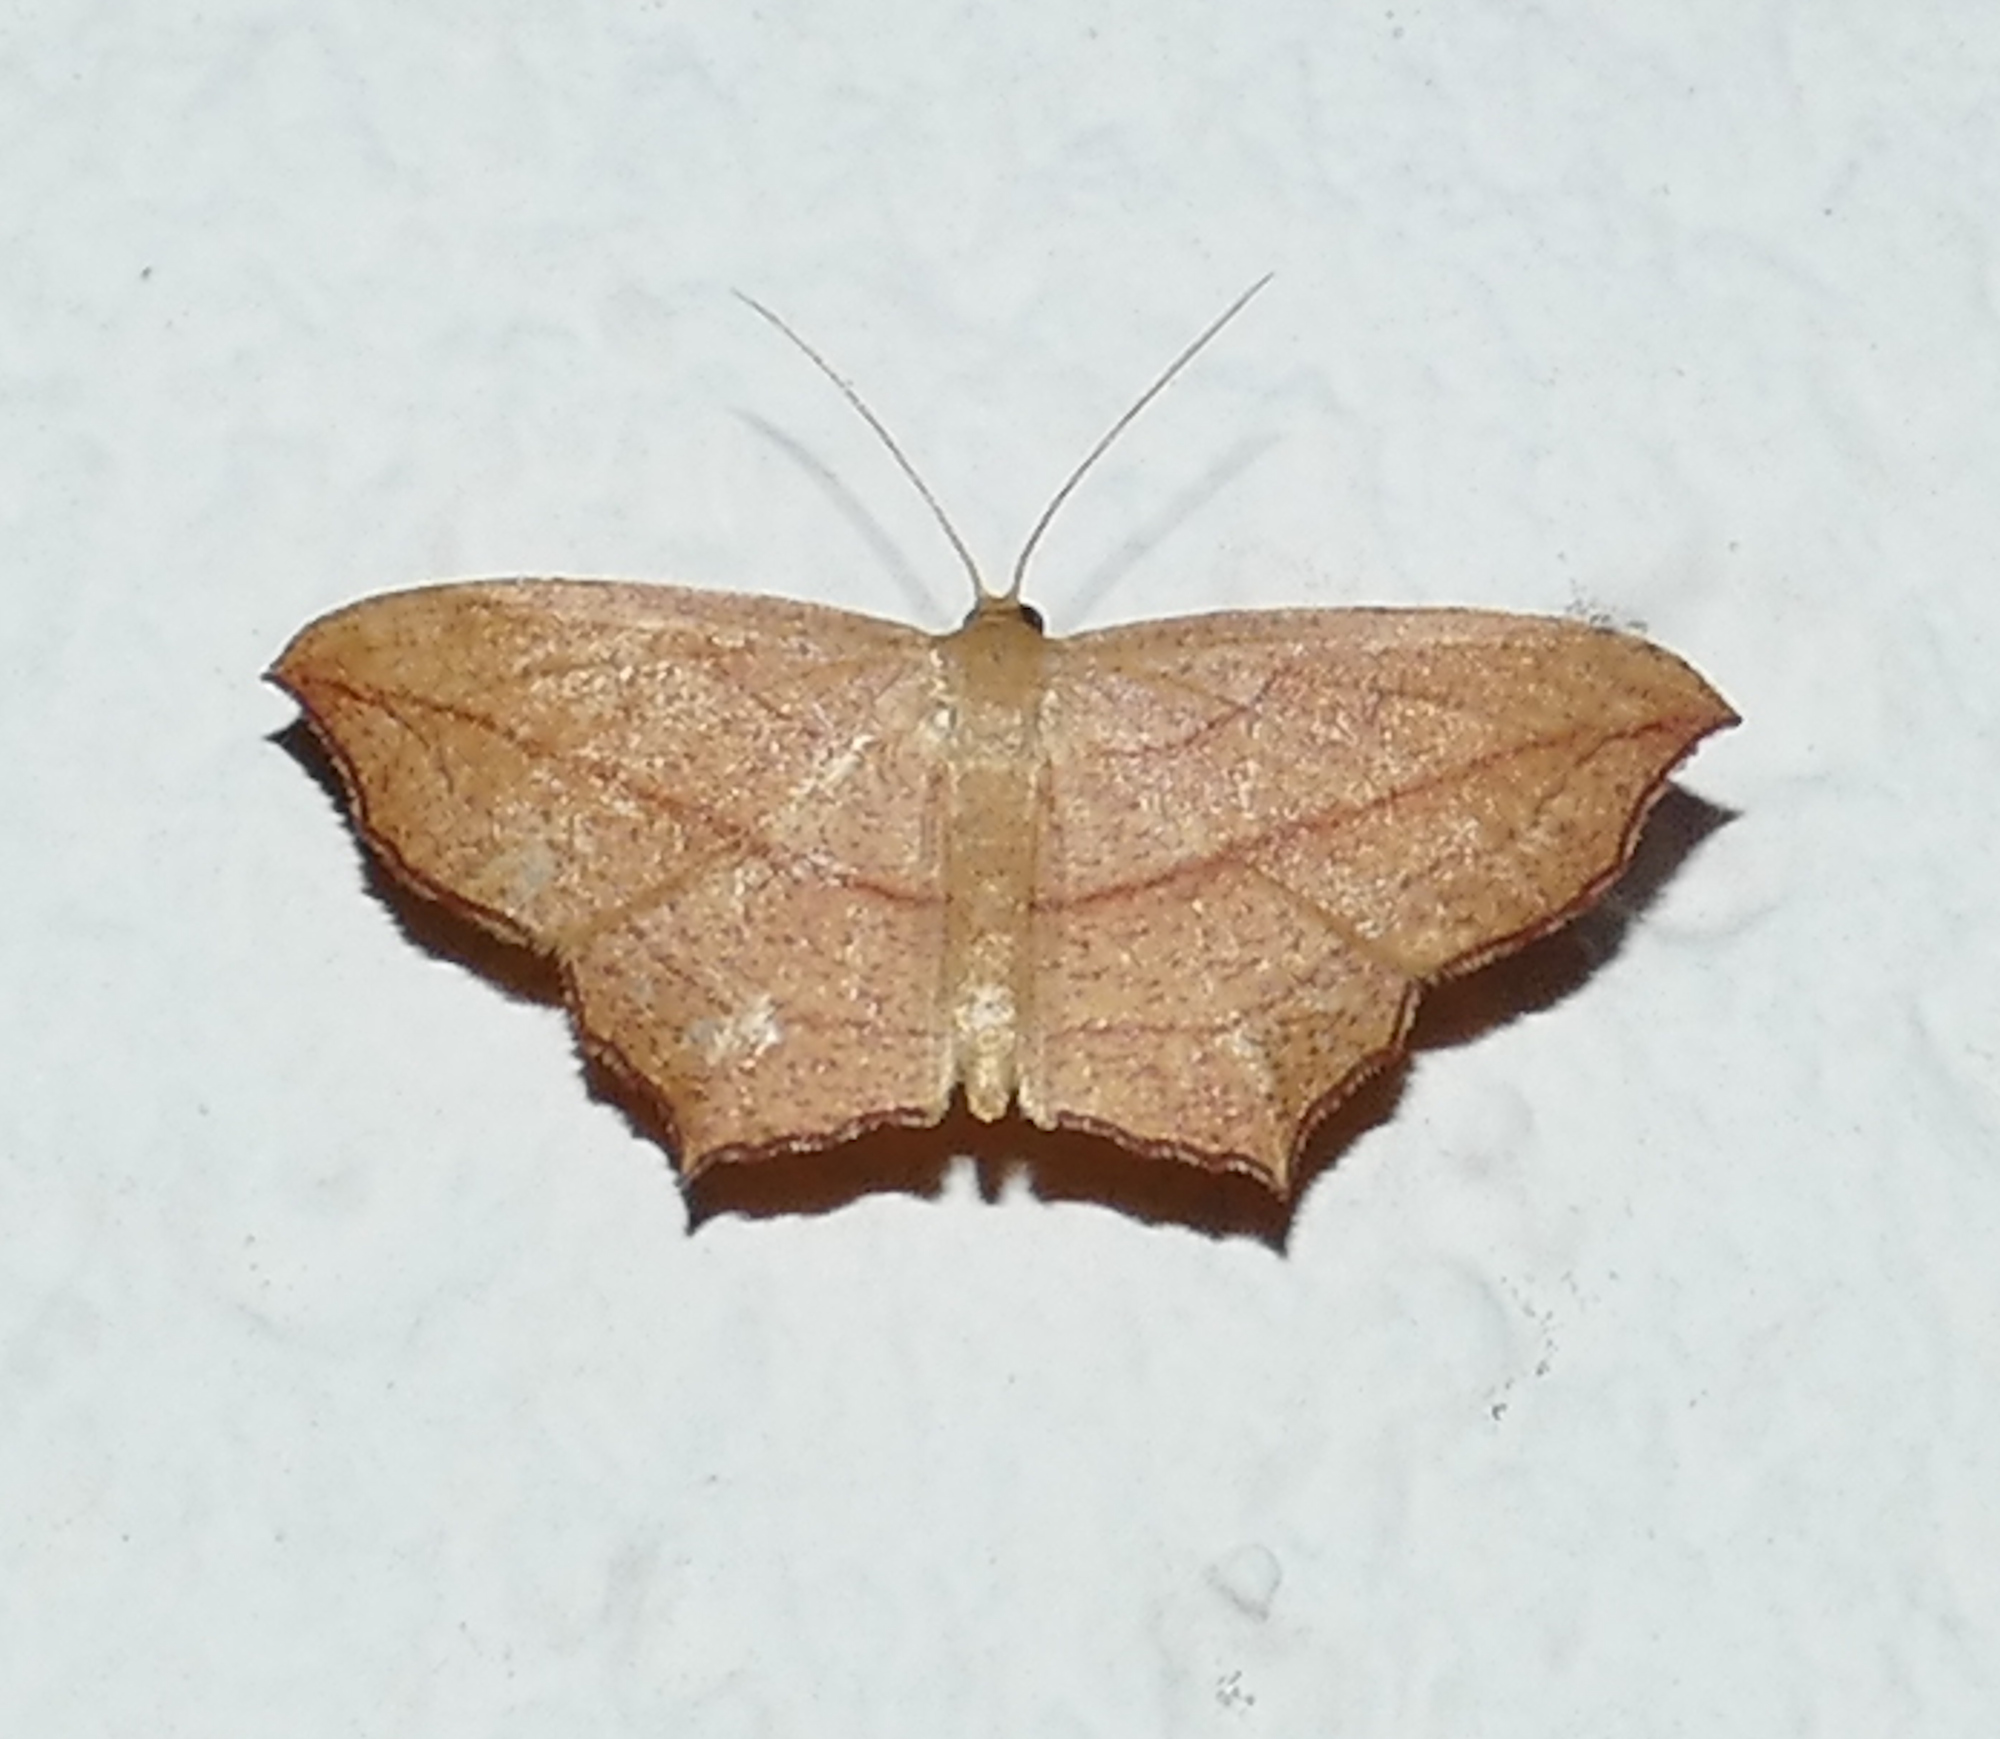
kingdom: Animalia
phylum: Arthropoda
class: Insecta
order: Lepidoptera
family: Geometridae
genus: Timandra
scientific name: Timandra amaturaria
